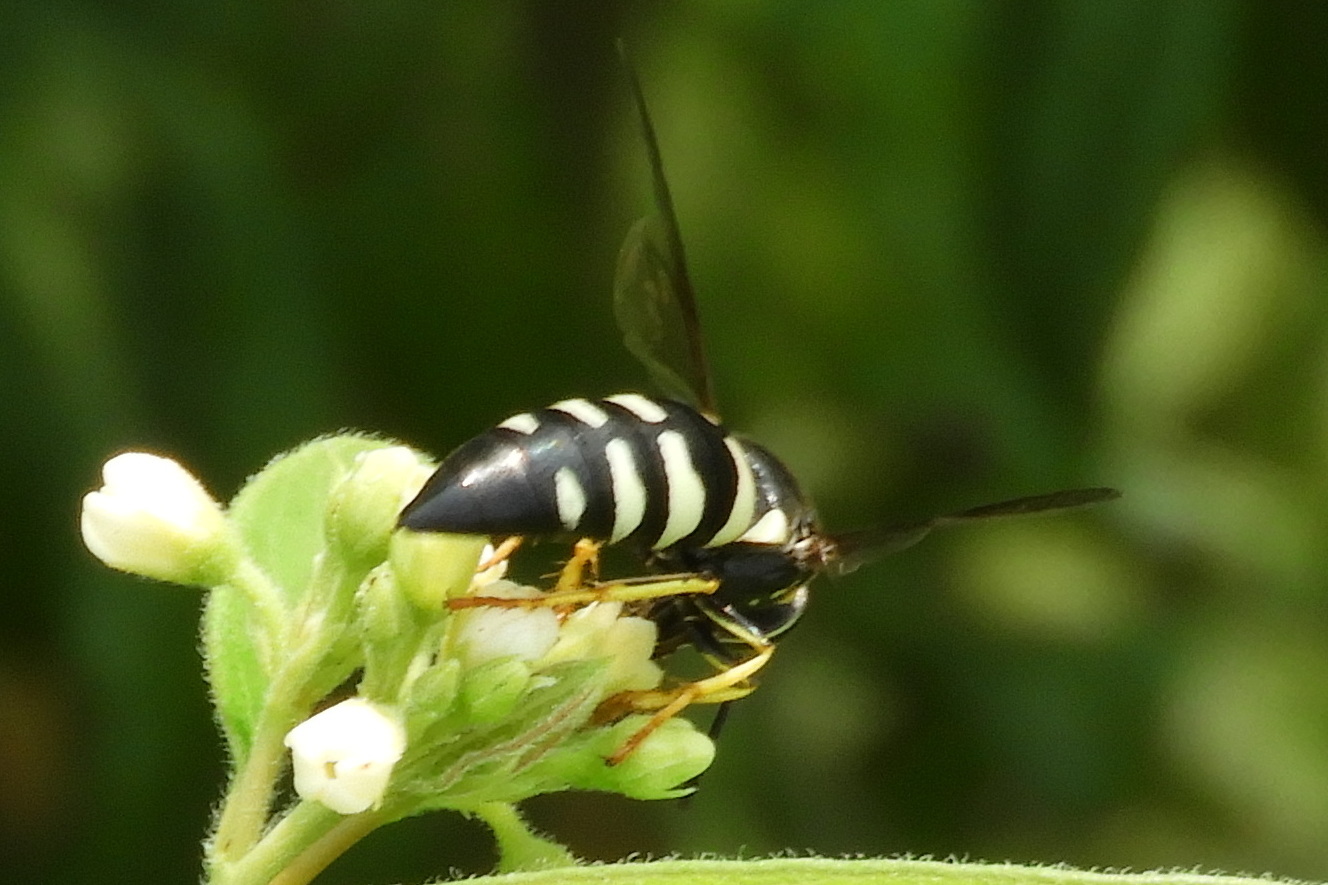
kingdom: Animalia
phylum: Arthropoda
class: Insecta
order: Hymenoptera
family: Crabronidae
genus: Bicyrtes
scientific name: Bicyrtes quadrifasciatus
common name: Four-banded stink bug hunter wasp
